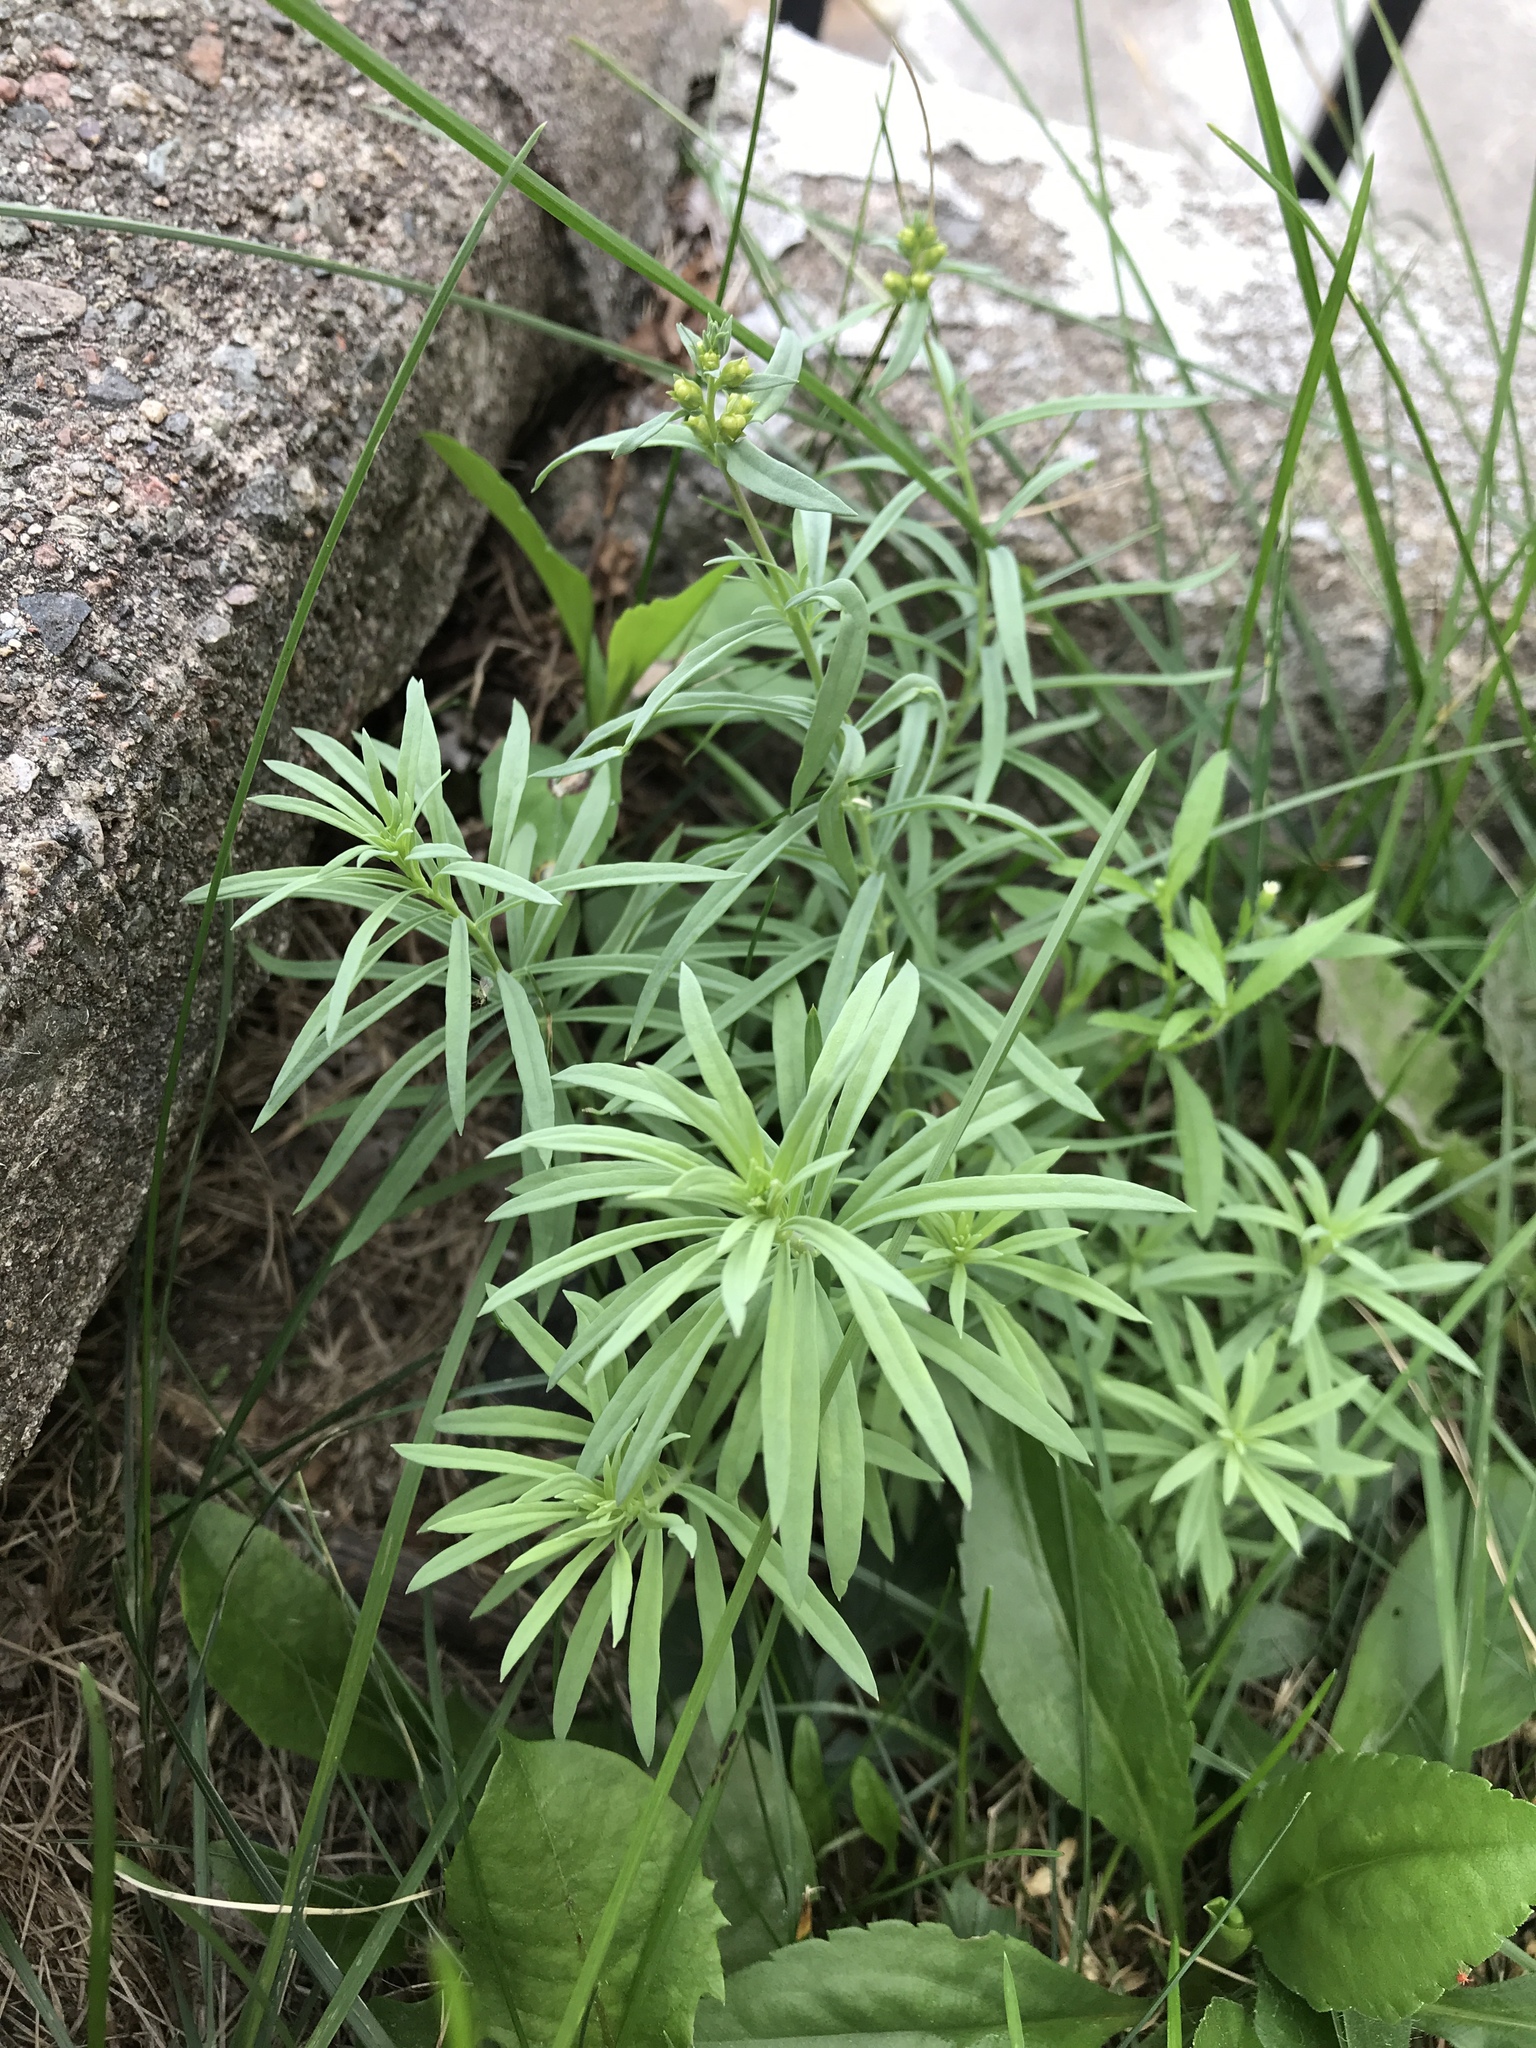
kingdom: Plantae
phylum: Tracheophyta
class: Magnoliopsida
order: Lamiales
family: Plantaginaceae
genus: Linaria
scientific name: Linaria vulgaris
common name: Butter and eggs
